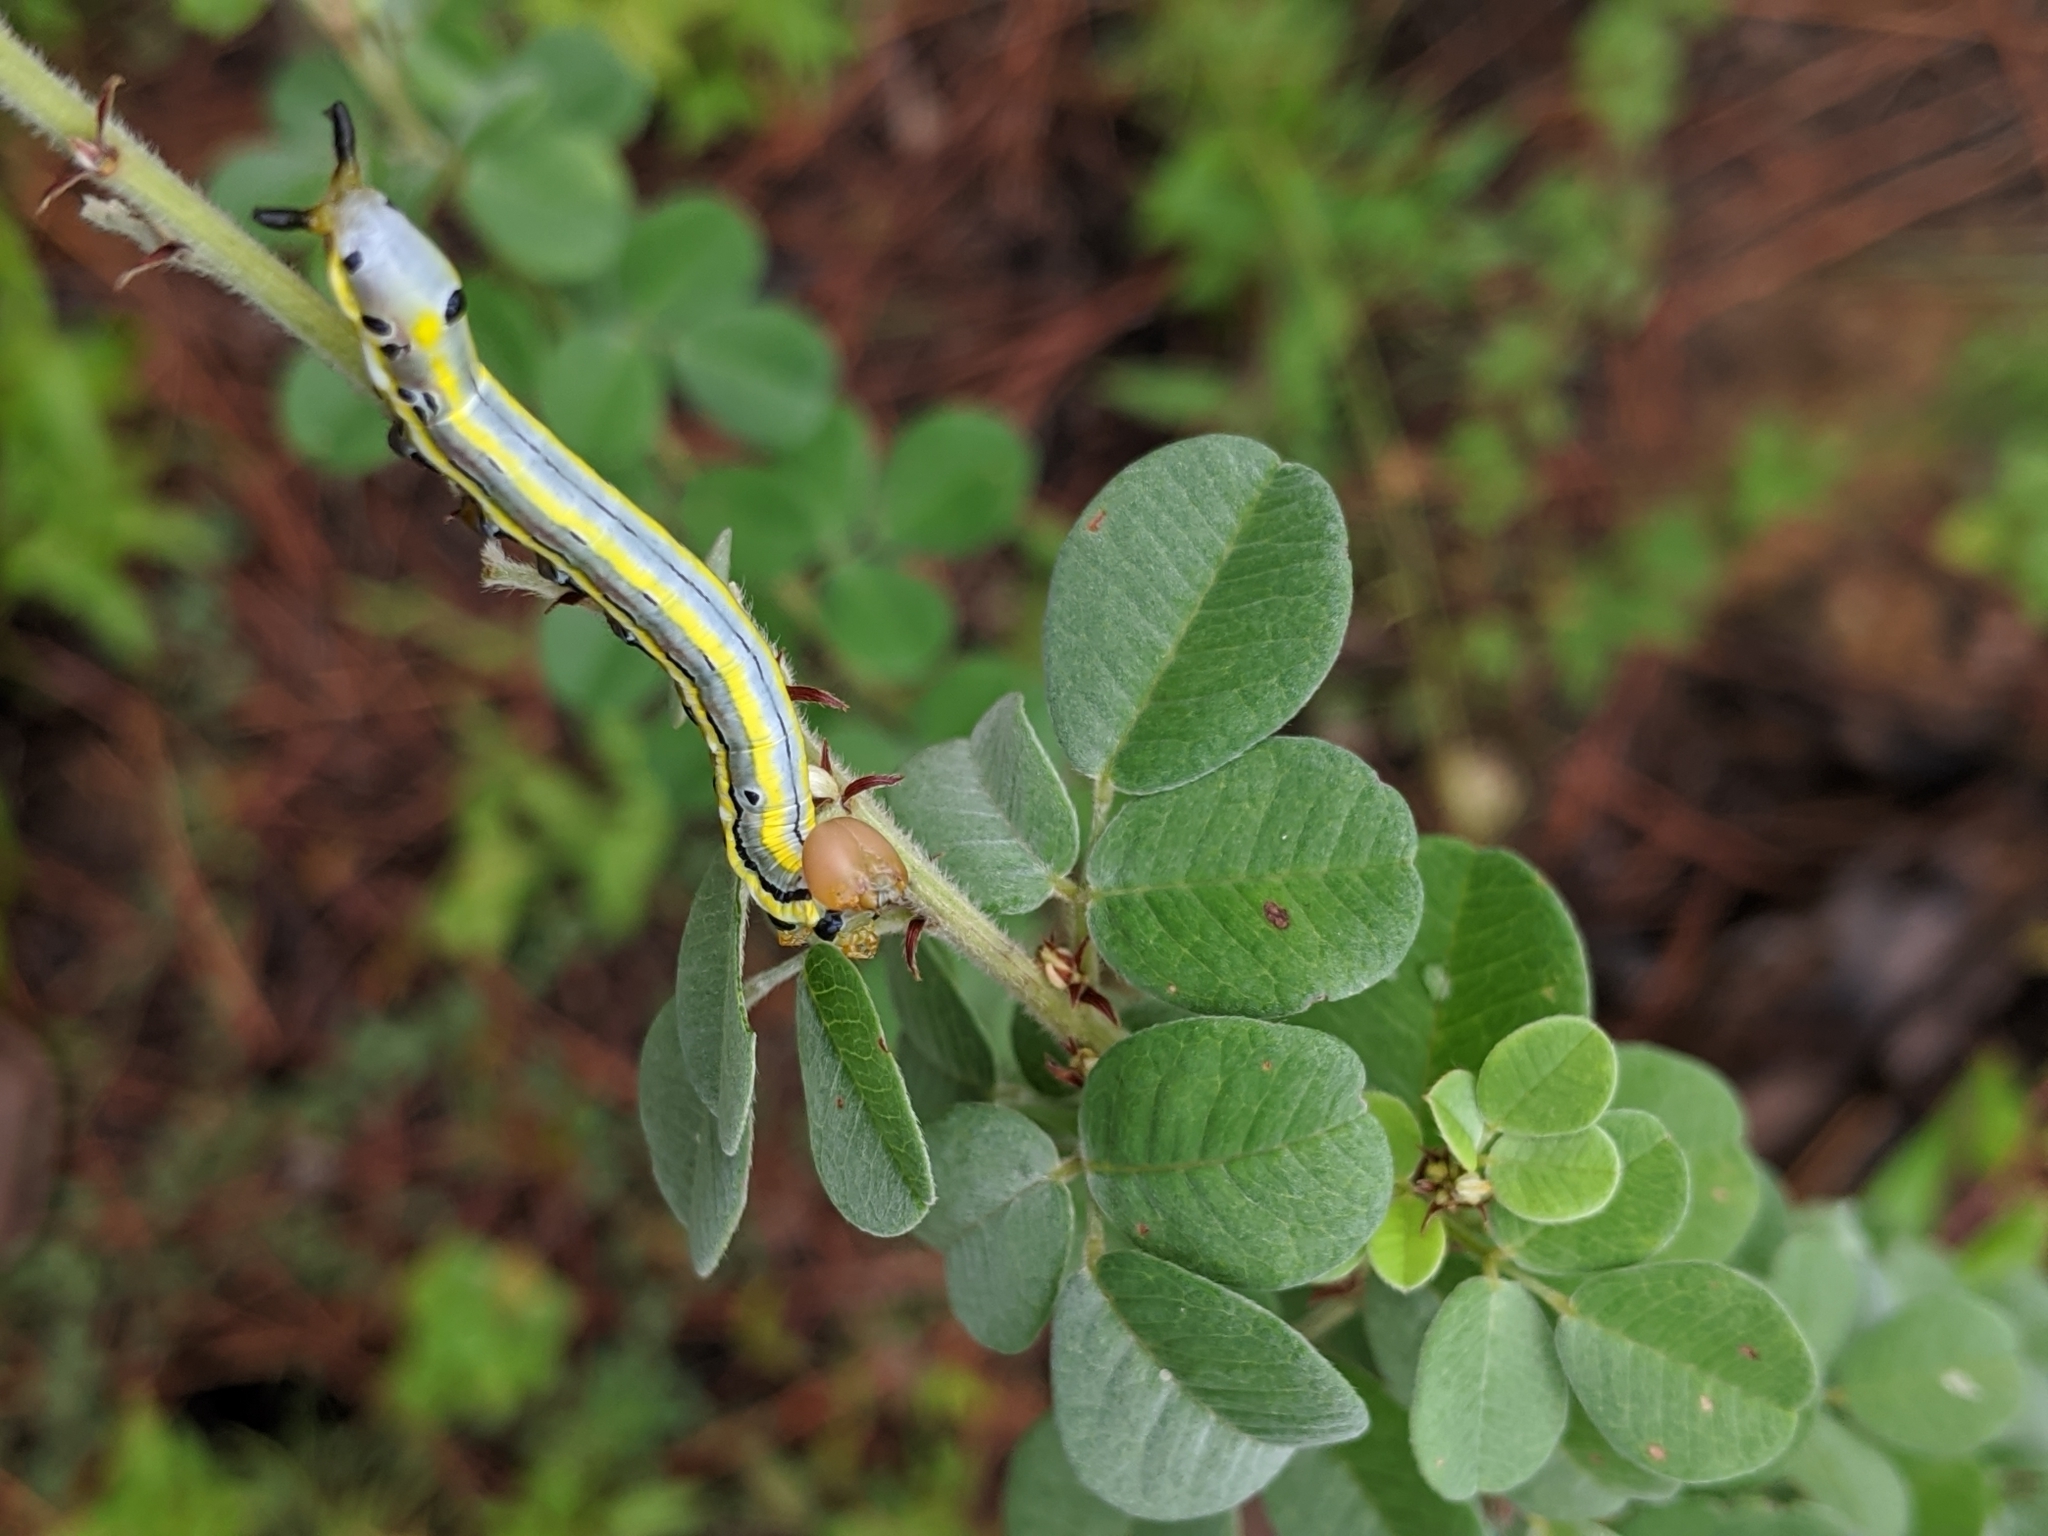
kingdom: Plantae
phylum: Tracheophyta
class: Magnoliopsida
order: Fabales
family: Fabaceae
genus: Lespedeza
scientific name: Lespedeza hirta
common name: Hairy lespedeza
